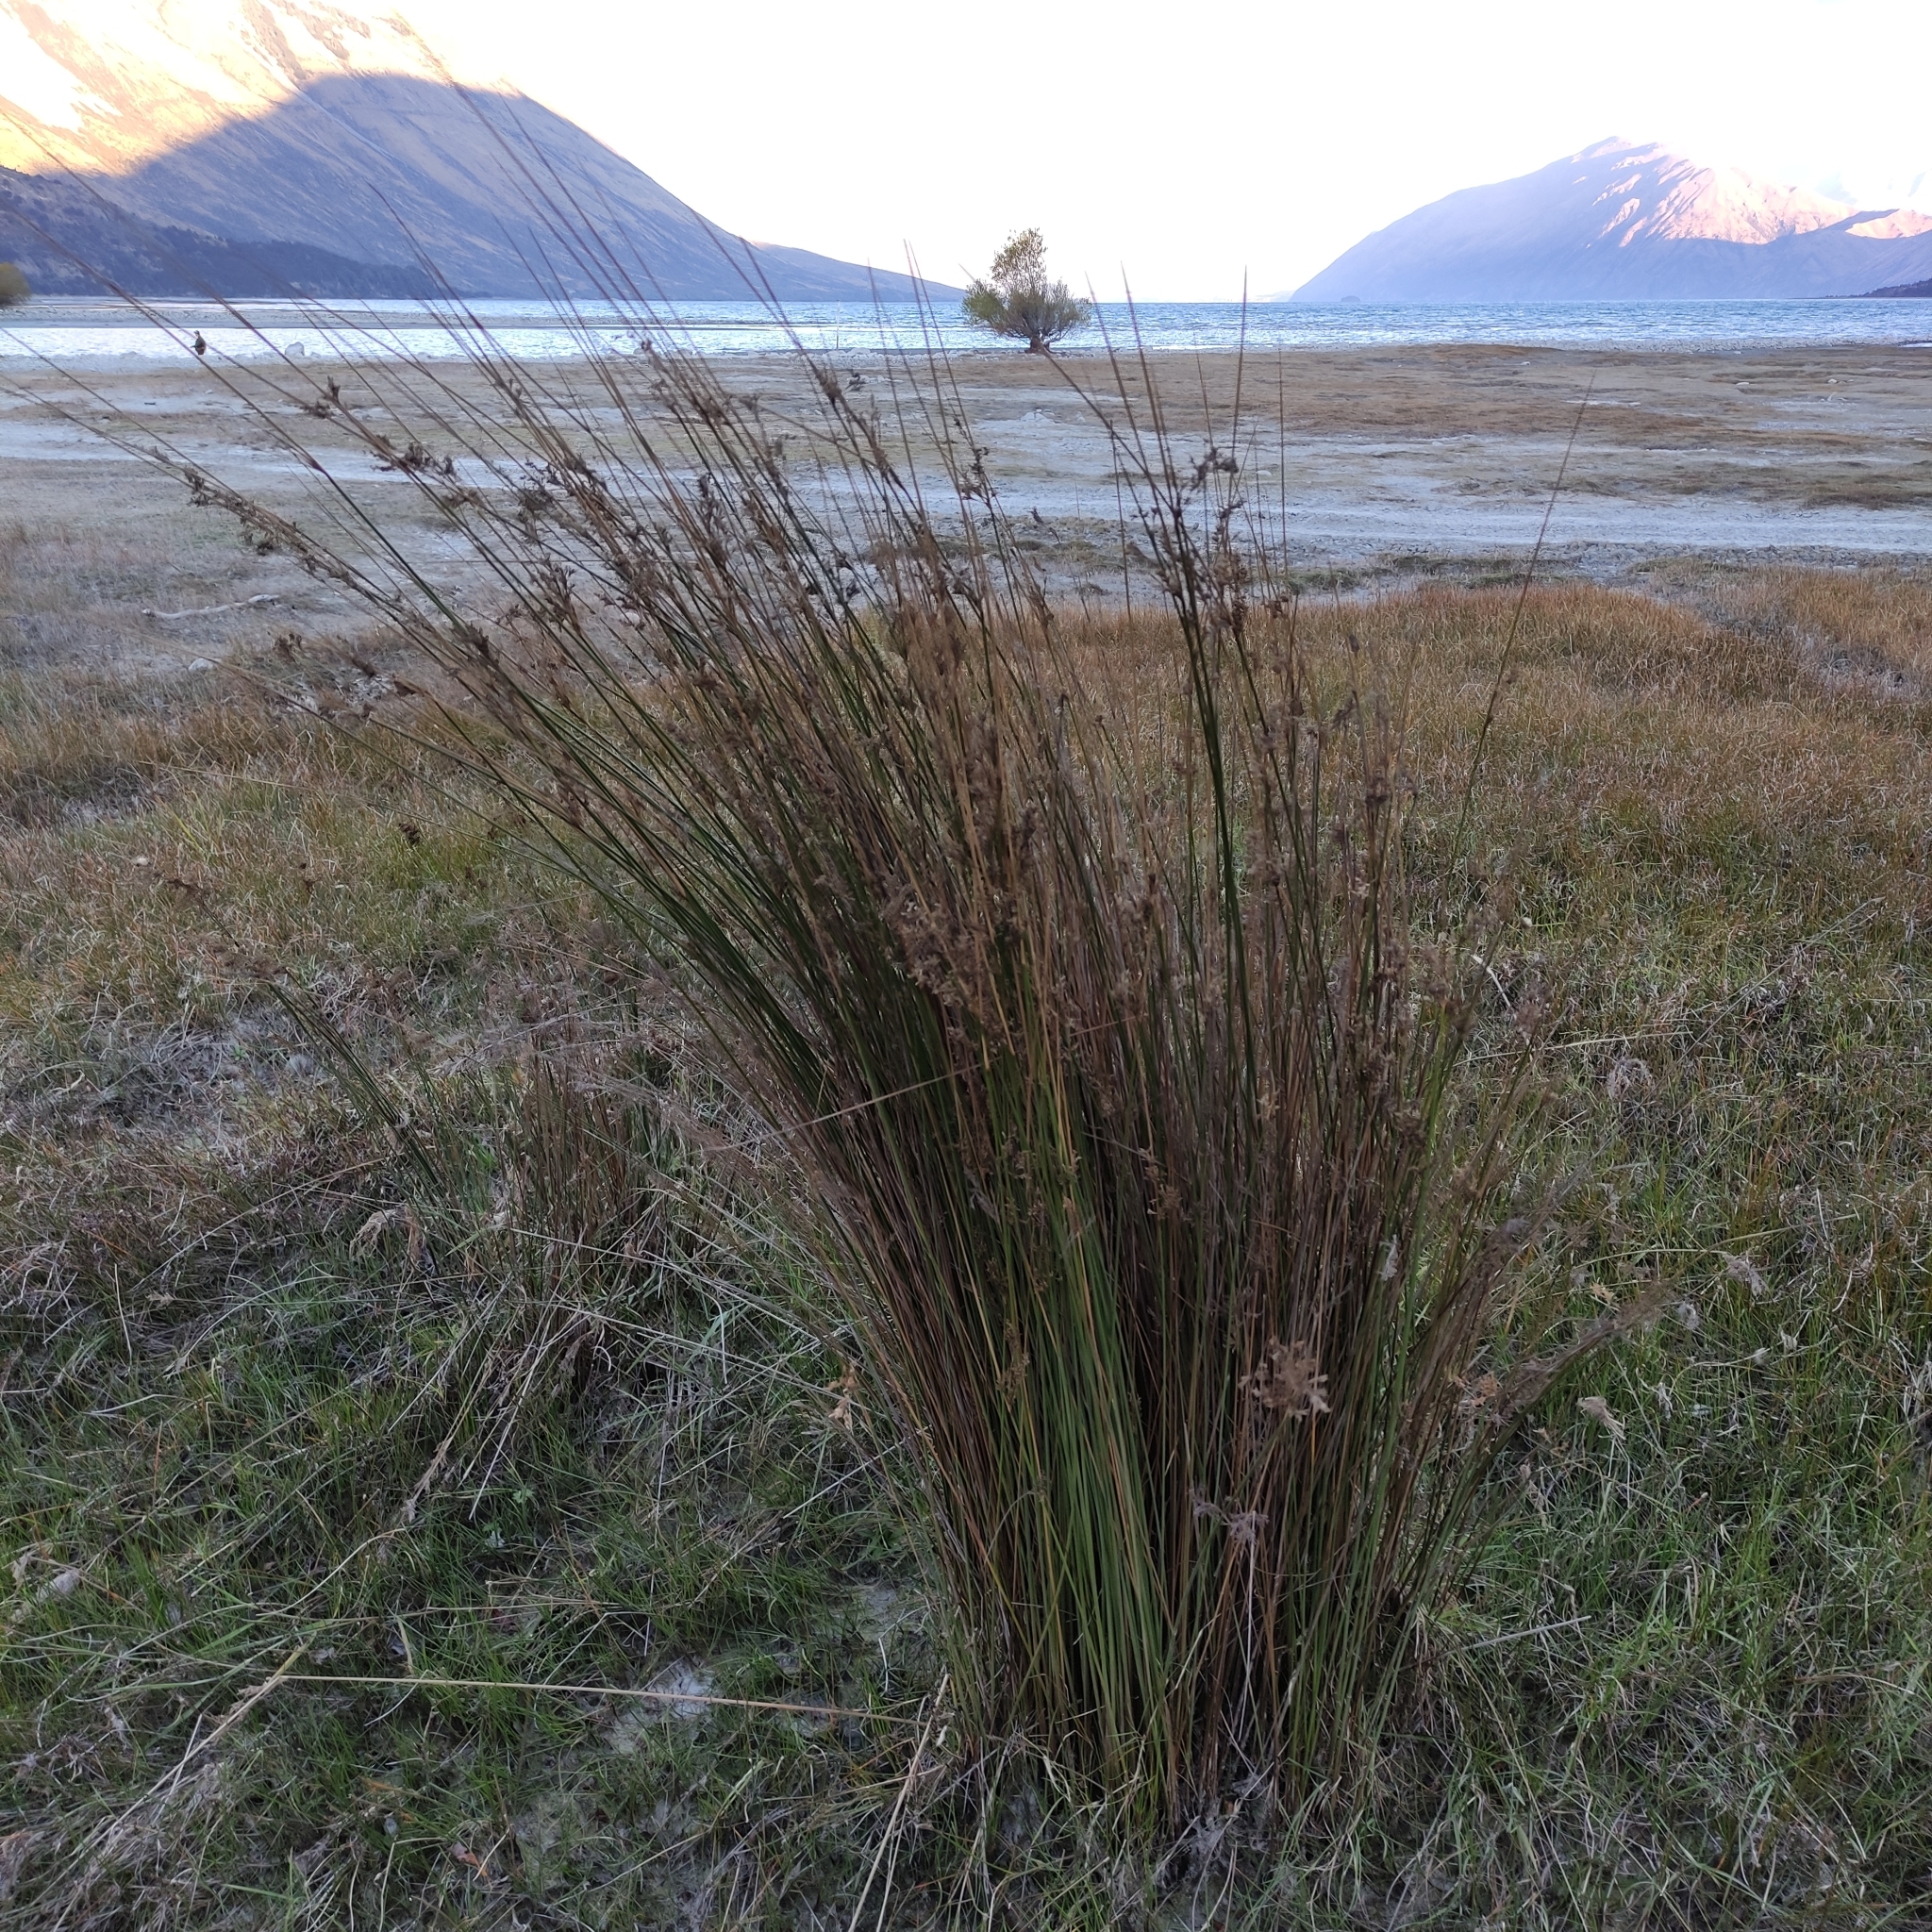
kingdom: Plantae
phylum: Tracheophyta
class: Liliopsida
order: Poales
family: Juncaceae
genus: Juncus
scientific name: Juncus sarophorus
